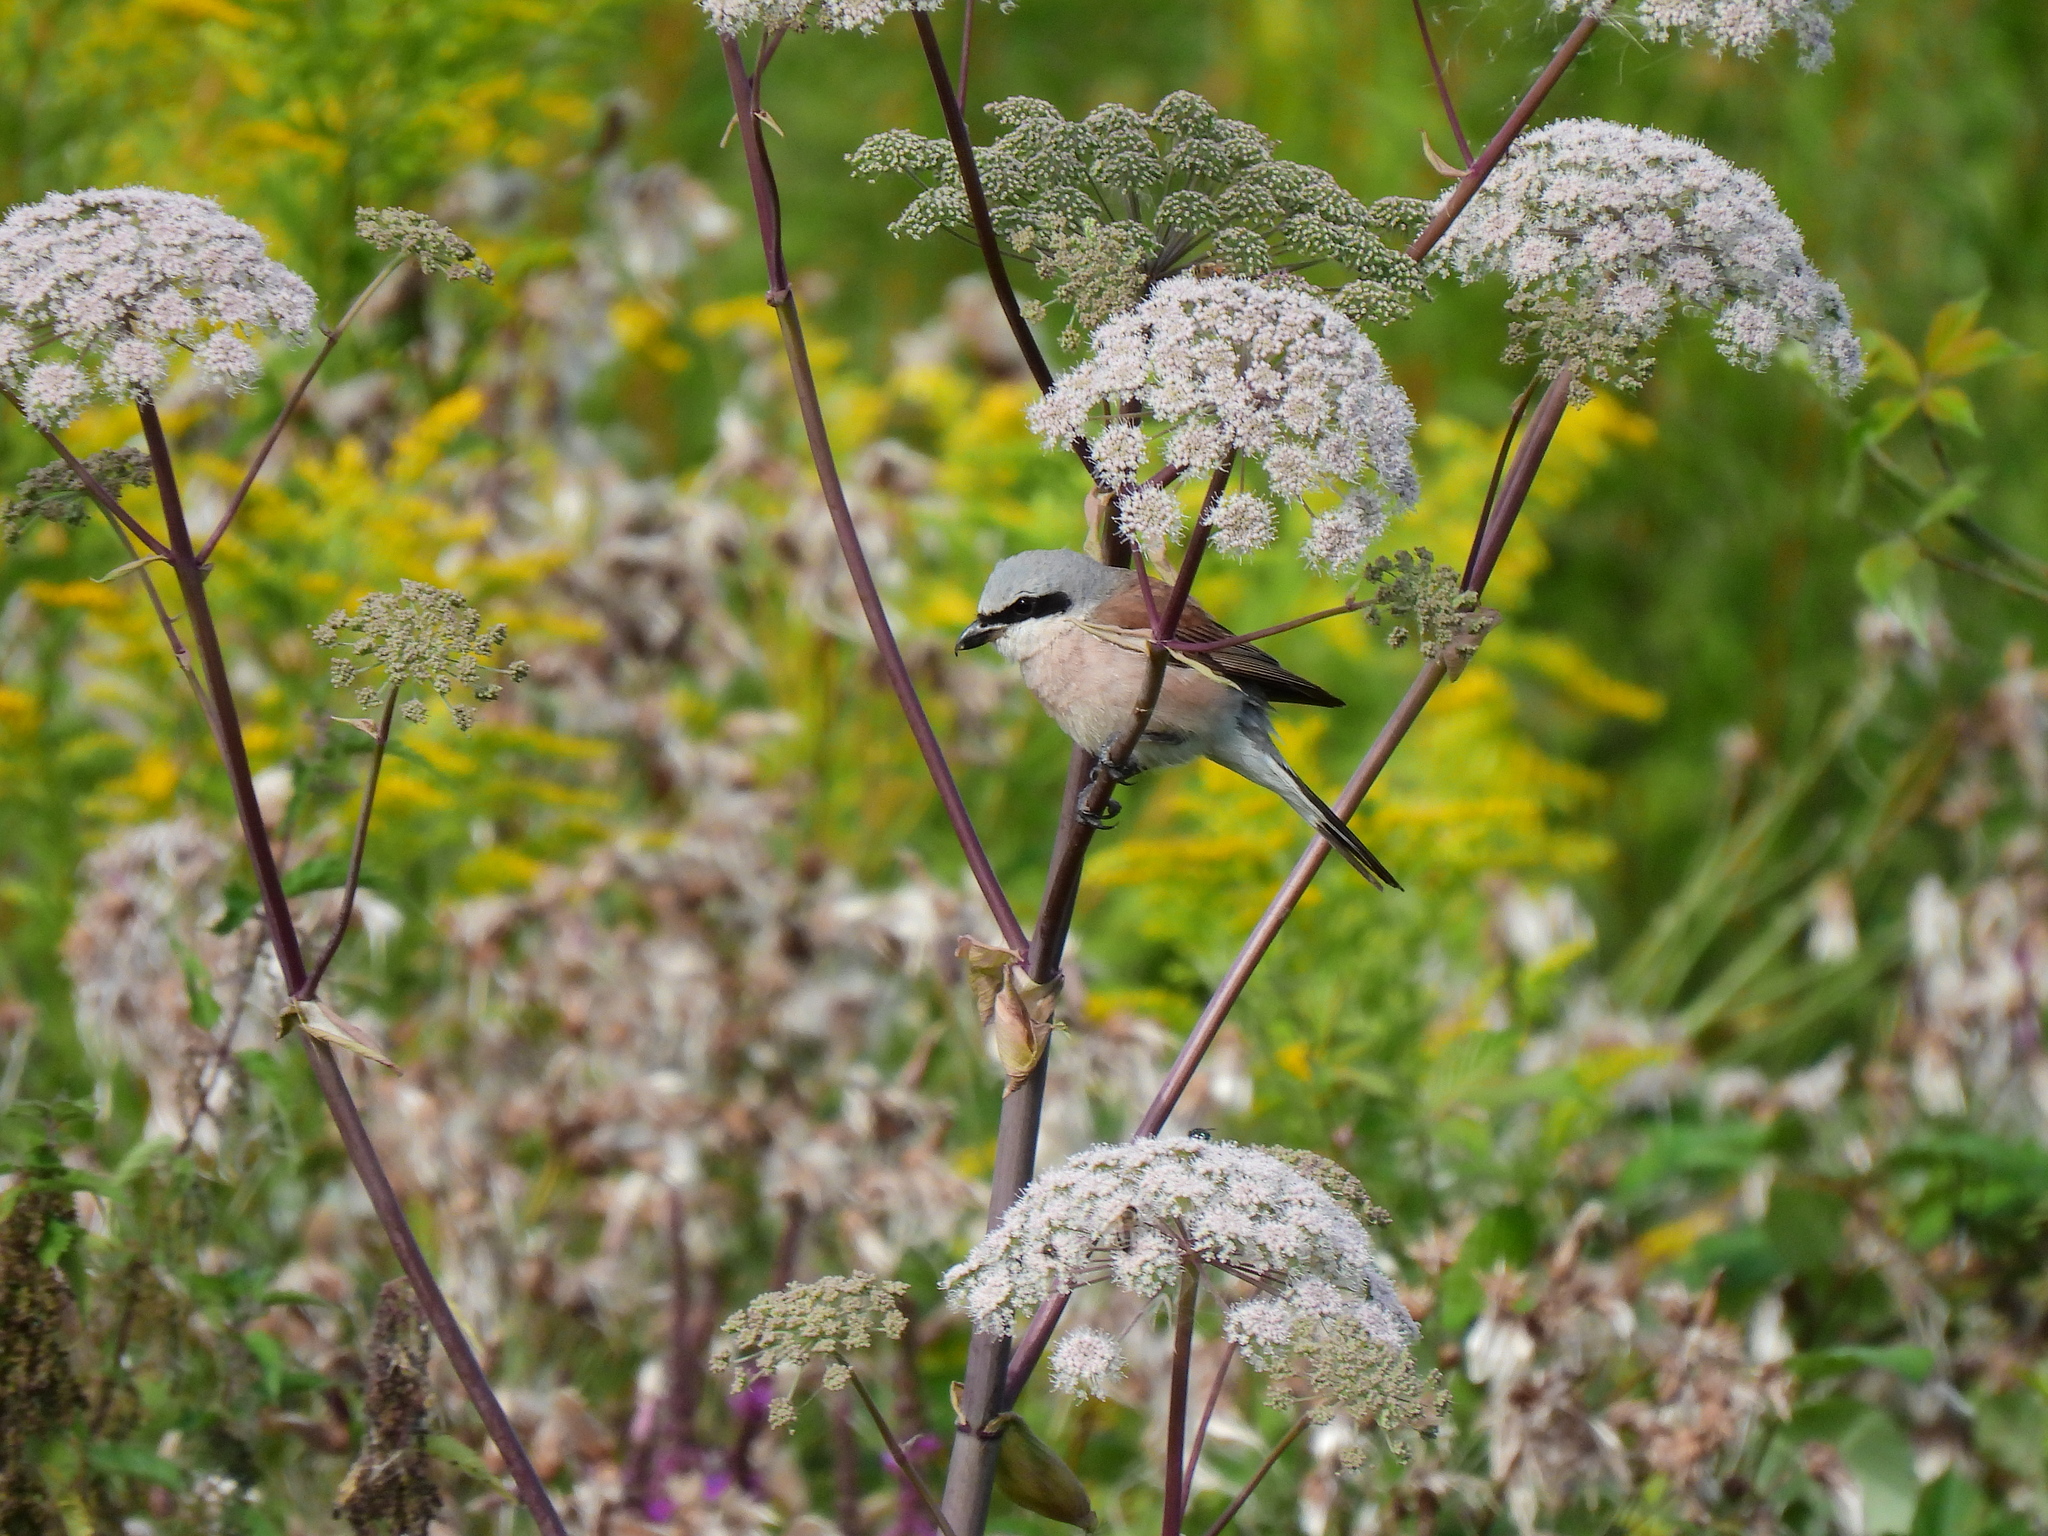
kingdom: Animalia
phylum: Chordata
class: Aves
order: Passeriformes
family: Laniidae
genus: Lanius
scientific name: Lanius collurio
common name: Red-backed shrike
